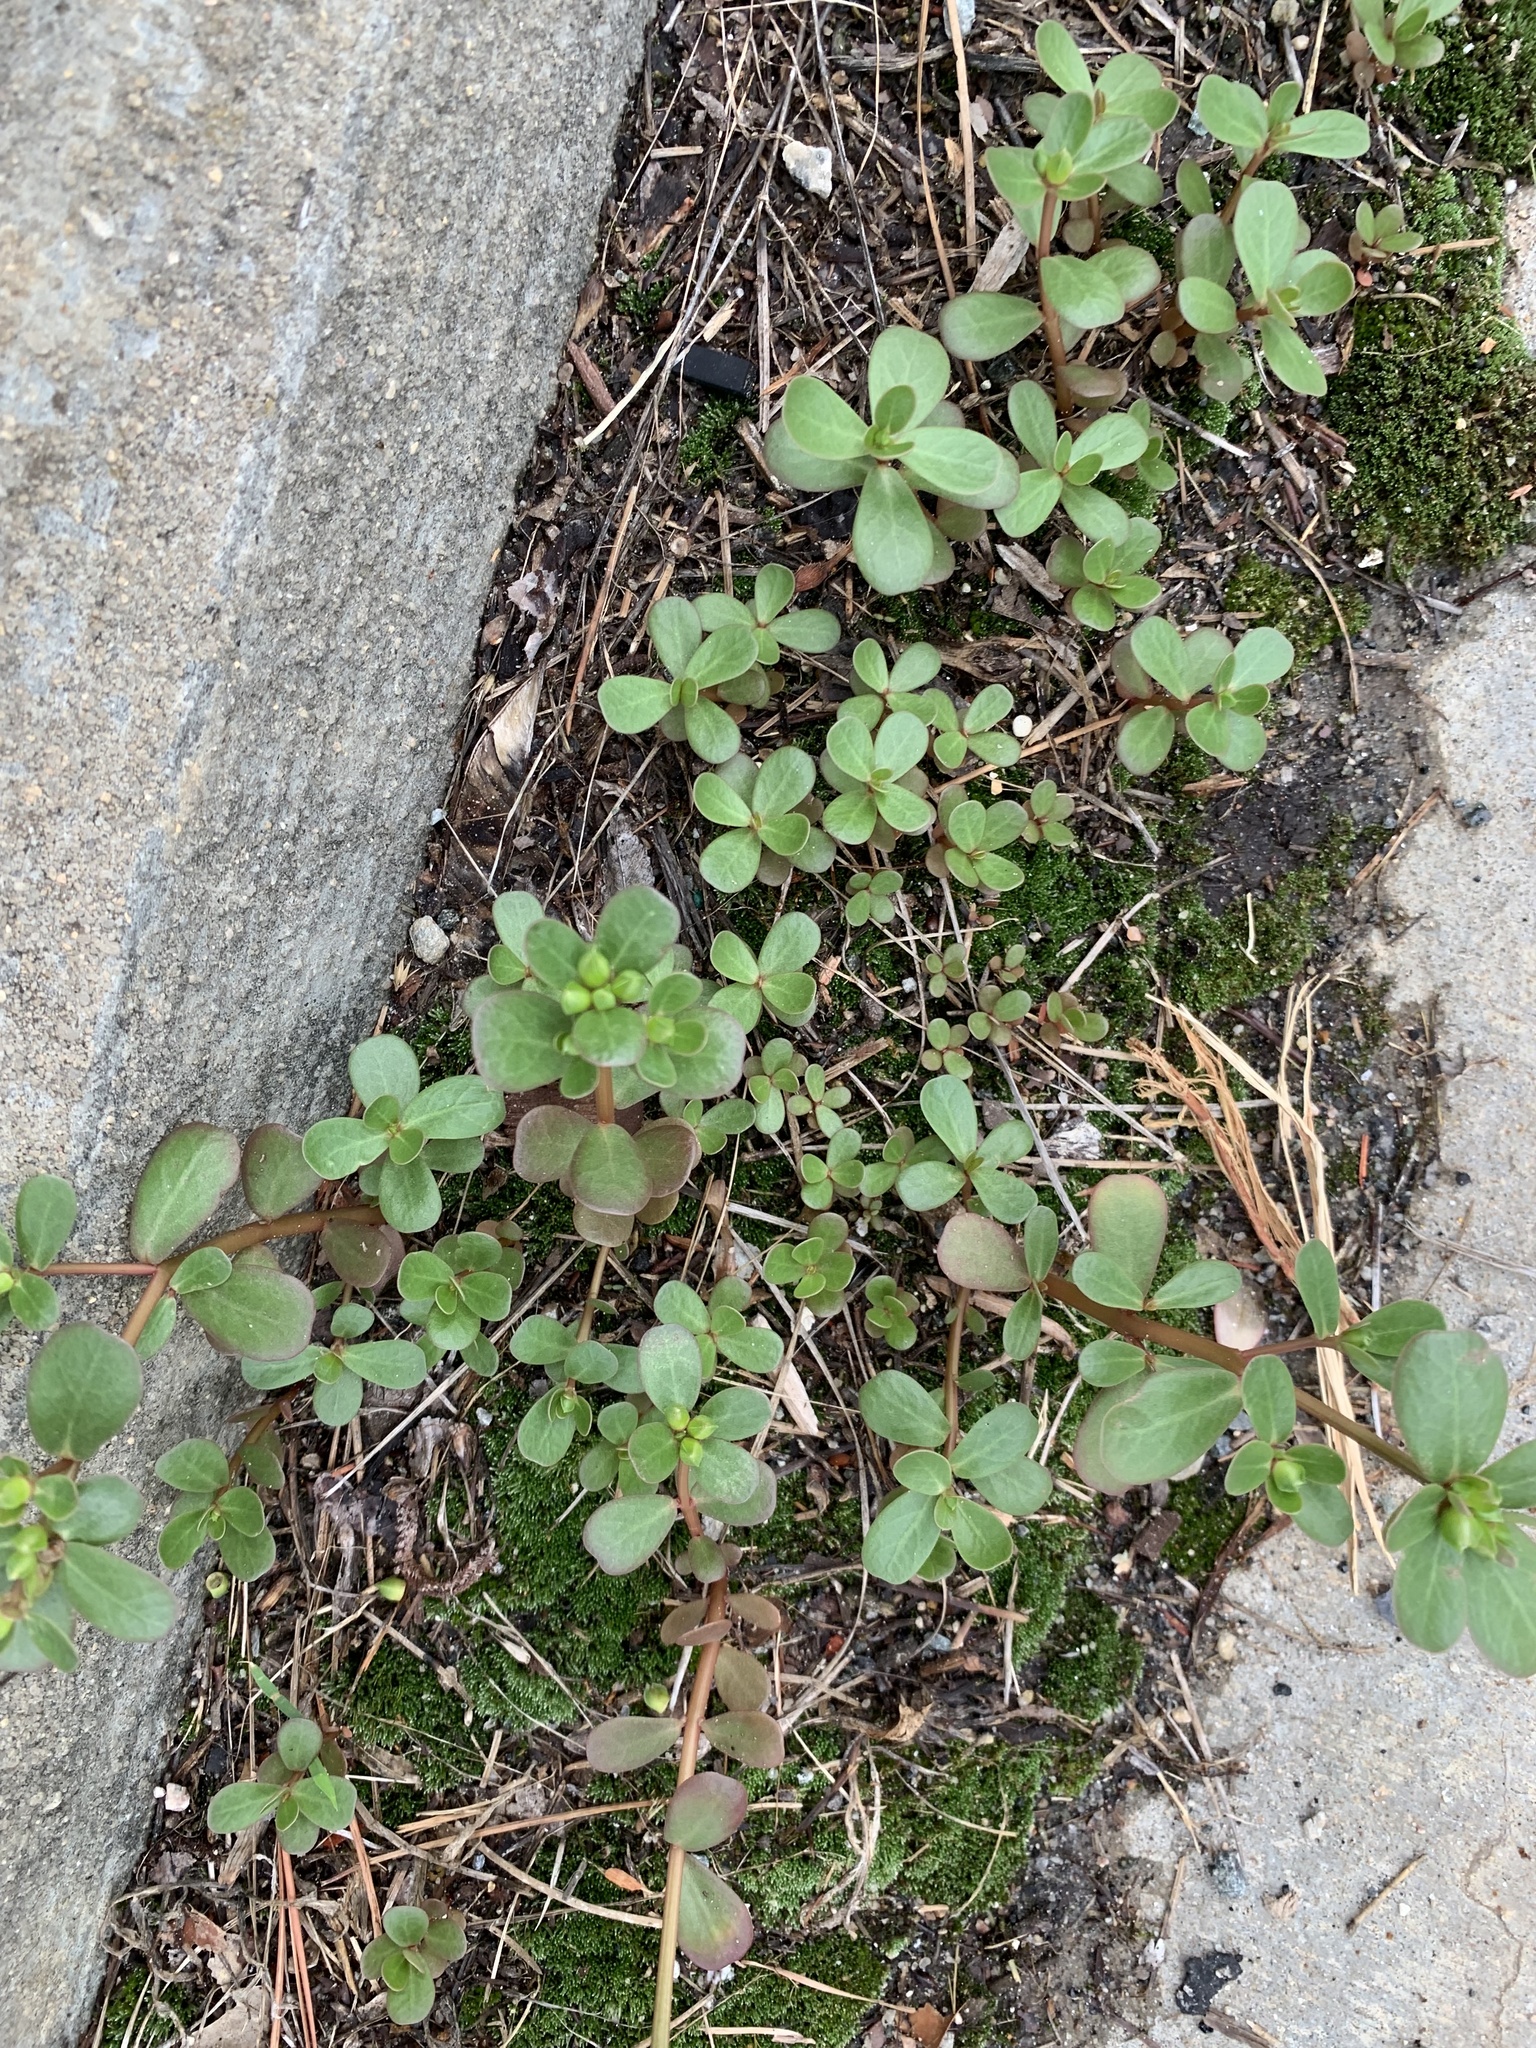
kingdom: Plantae
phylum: Tracheophyta
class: Magnoliopsida
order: Caryophyllales
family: Portulacaceae
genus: Portulaca
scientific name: Portulaca oleracea
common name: Common purslane
